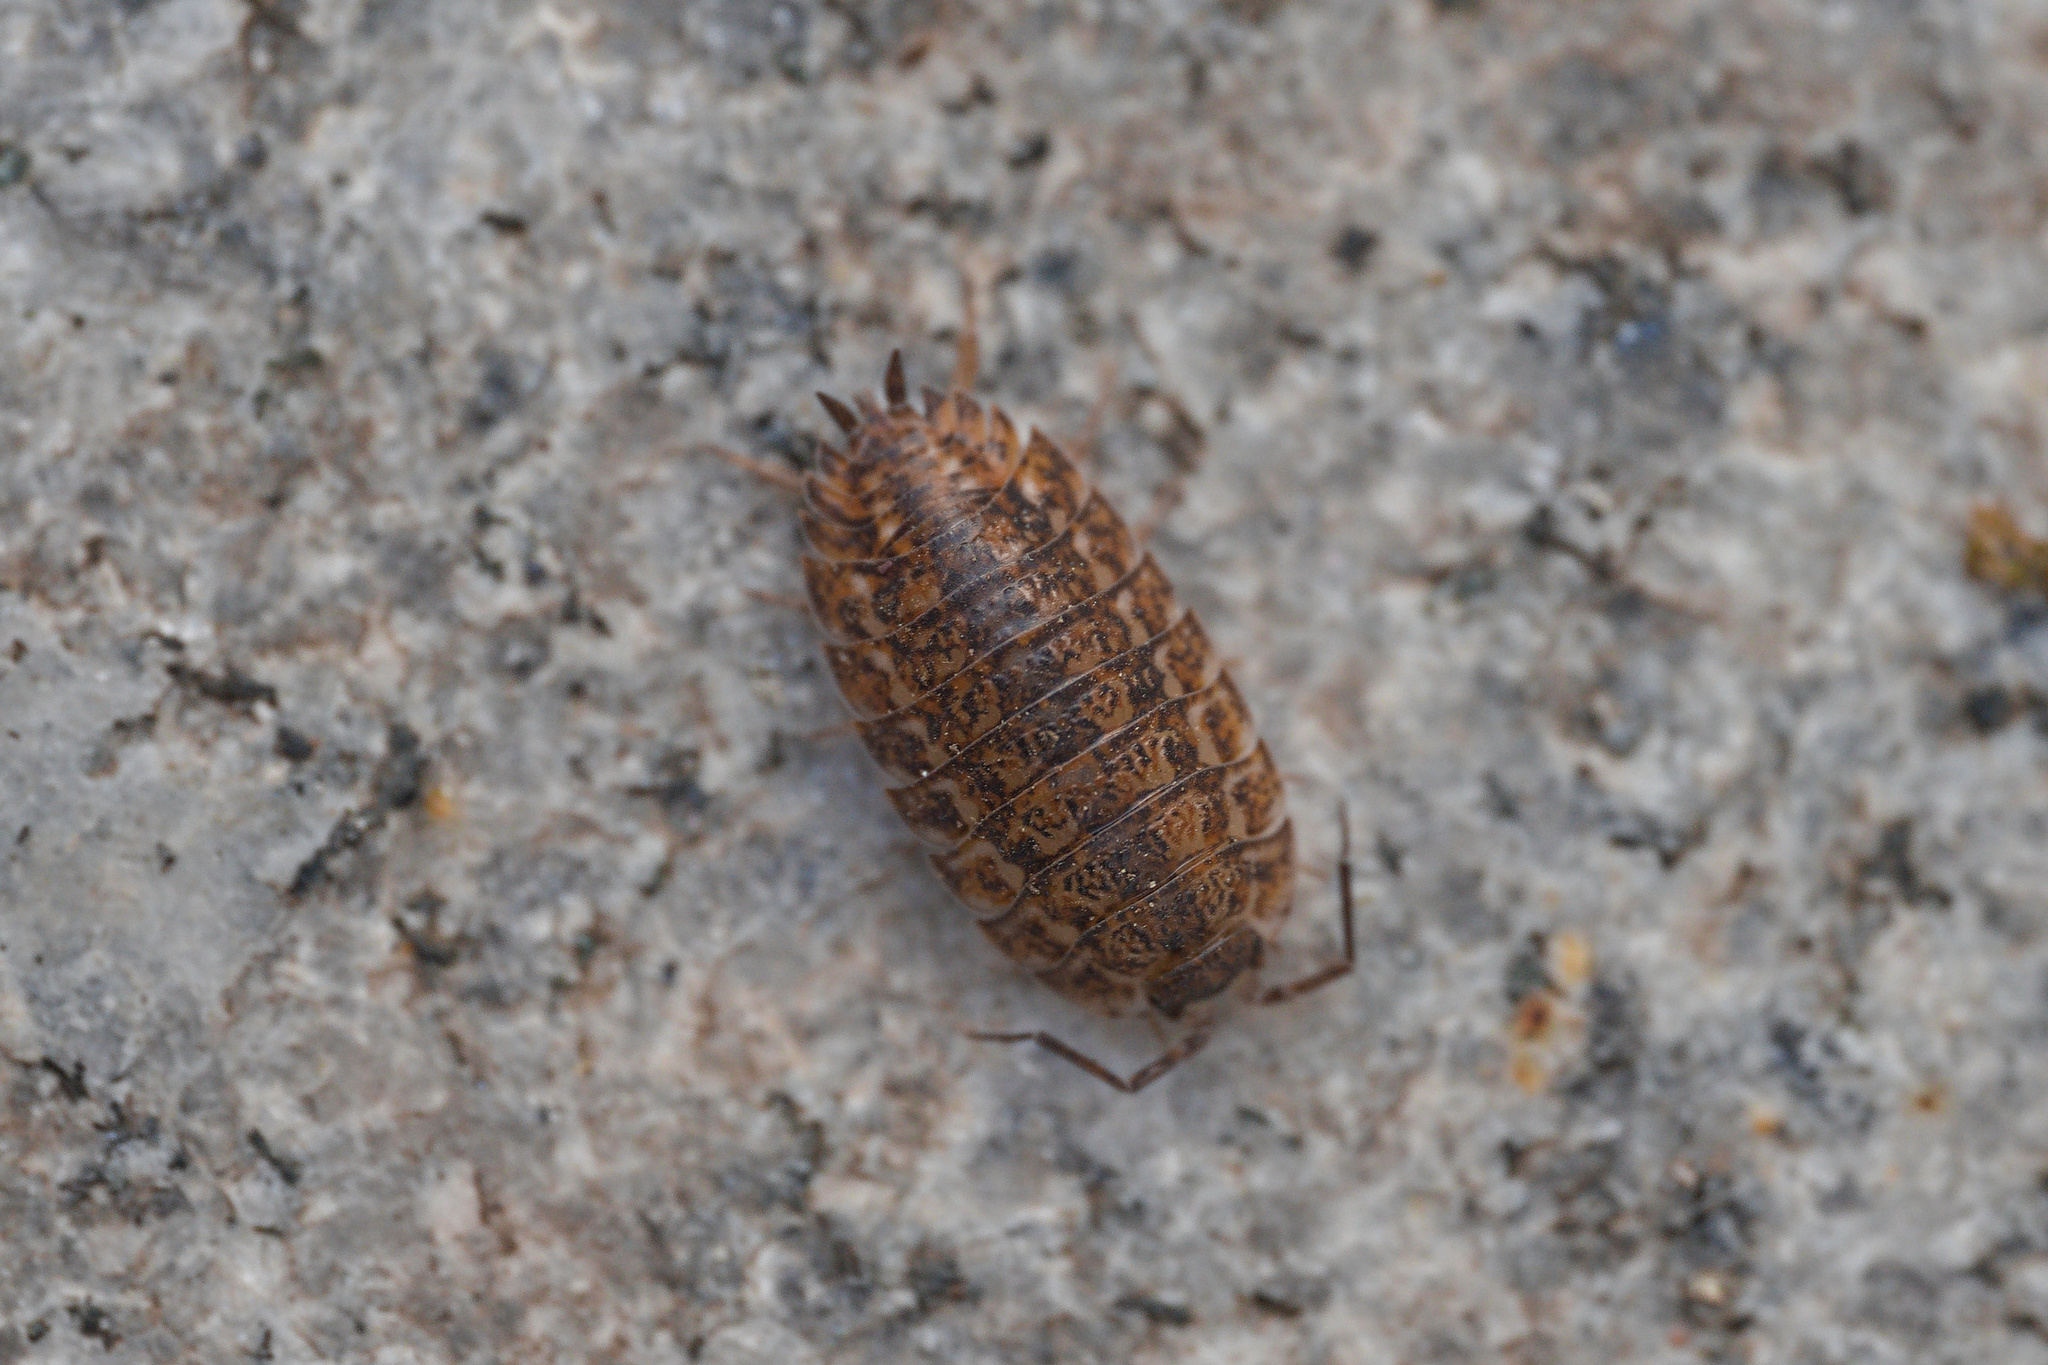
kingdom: Animalia
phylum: Arthropoda
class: Malacostraca
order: Isopoda
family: Trachelipodidae
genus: Trachelipus
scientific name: Trachelipus rathkii
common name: Isopod
